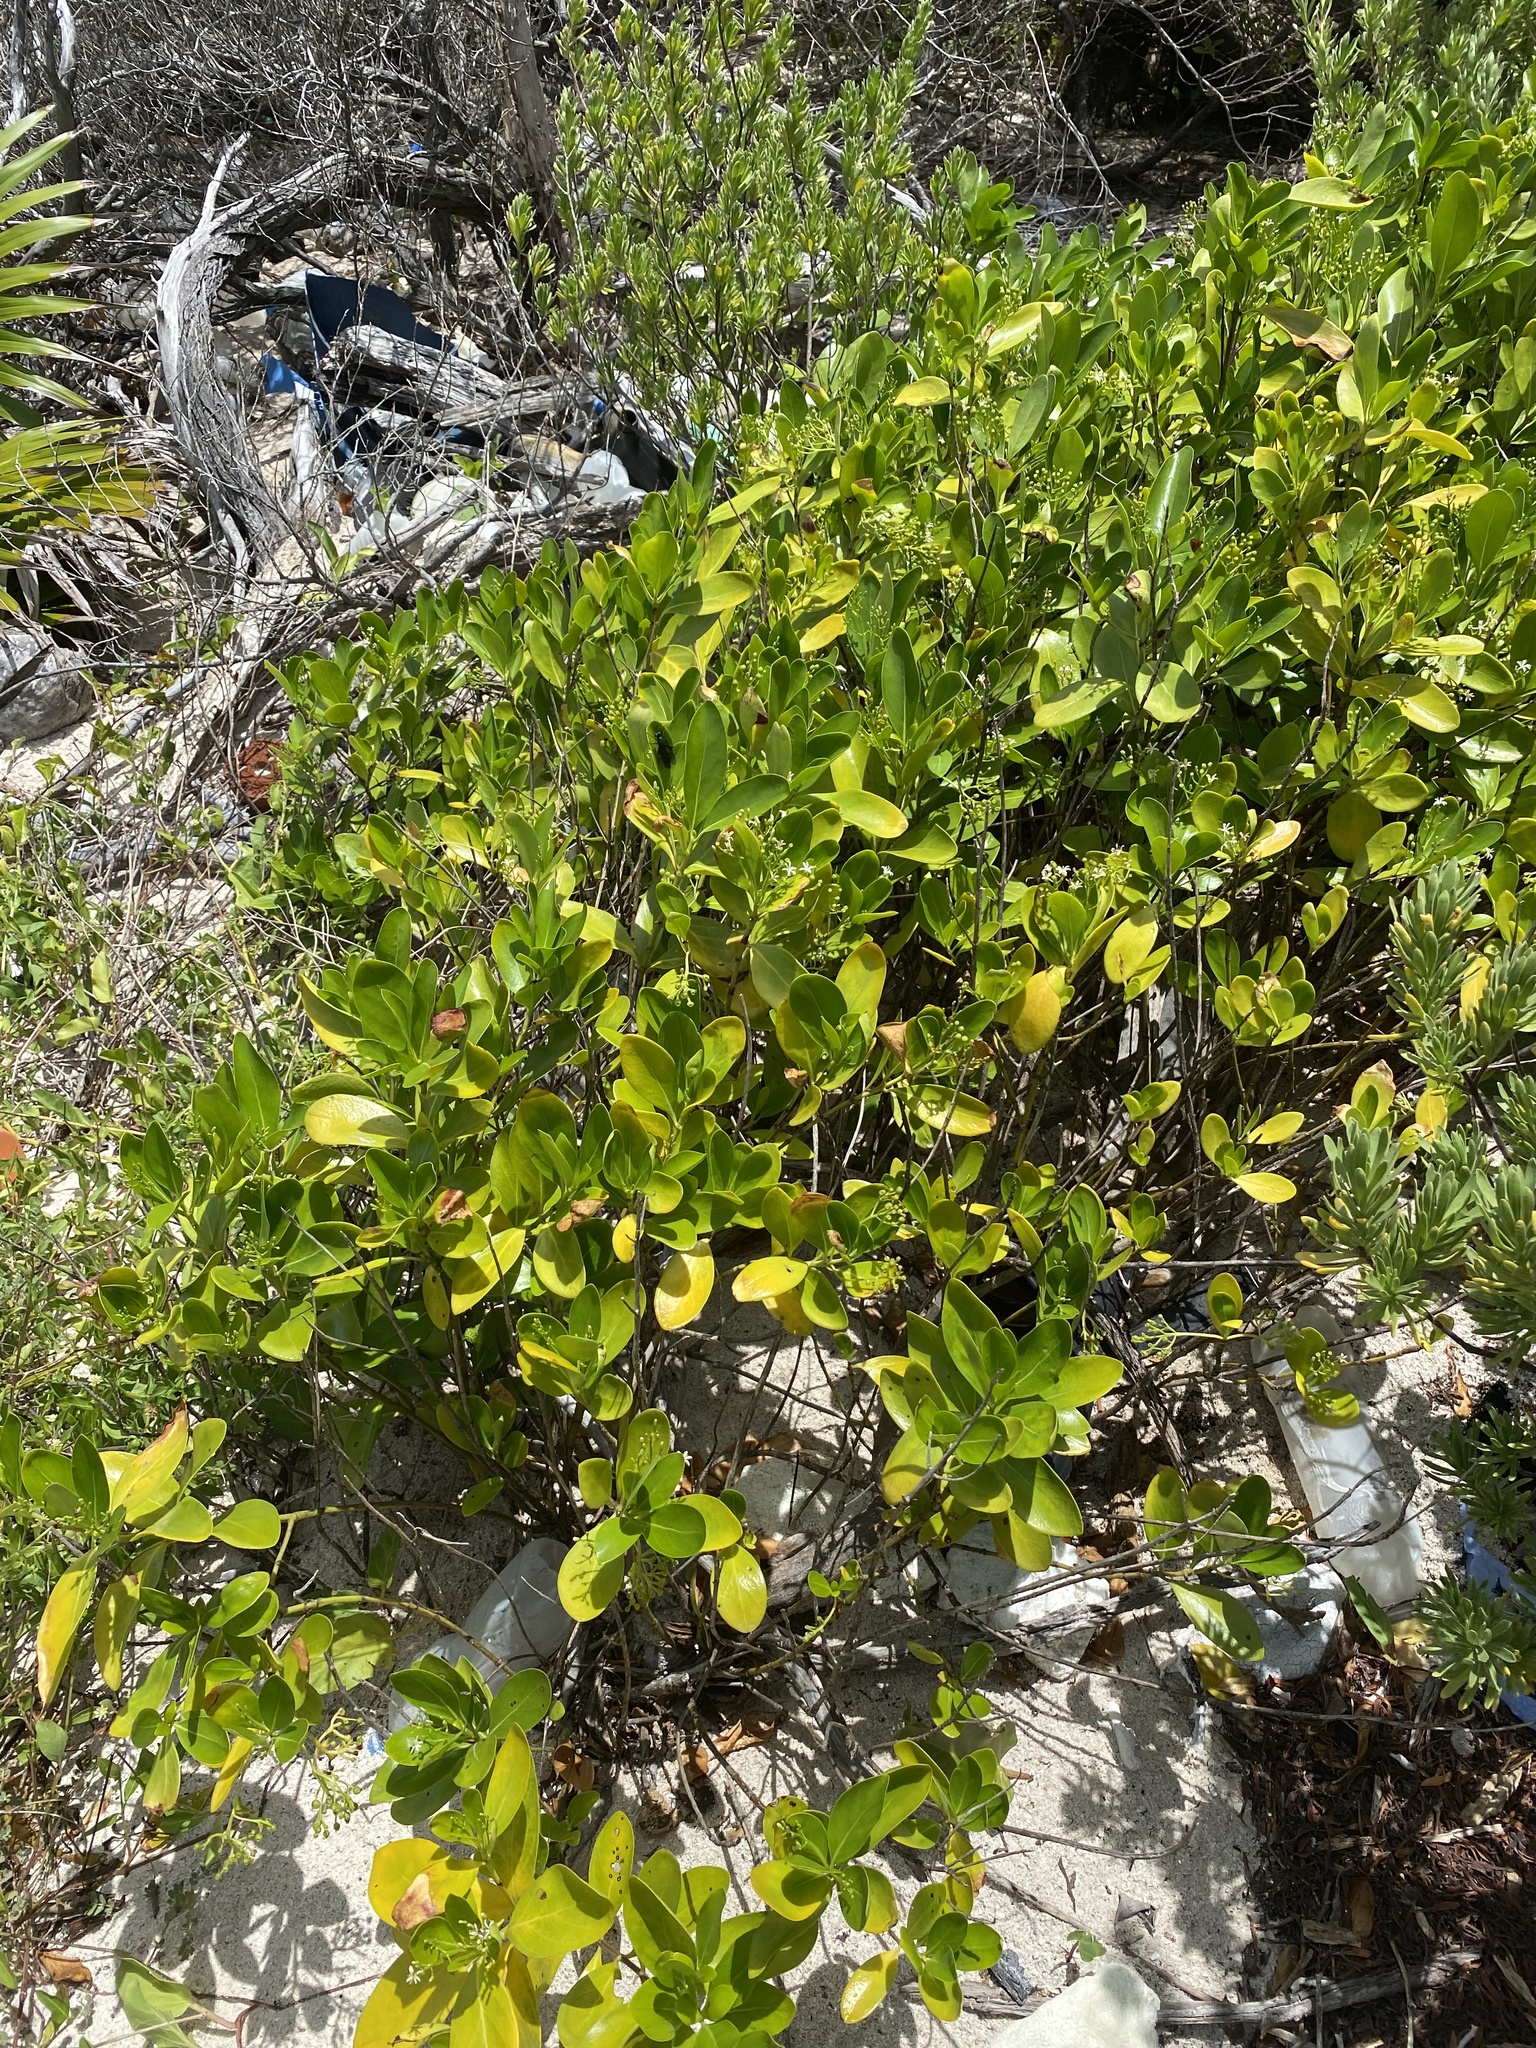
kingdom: Plantae
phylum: Tracheophyta
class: Magnoliopsida
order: Asterales
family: Goodeniaceae
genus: Scaevola
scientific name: Scaevola plumieri
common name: Gull feed
